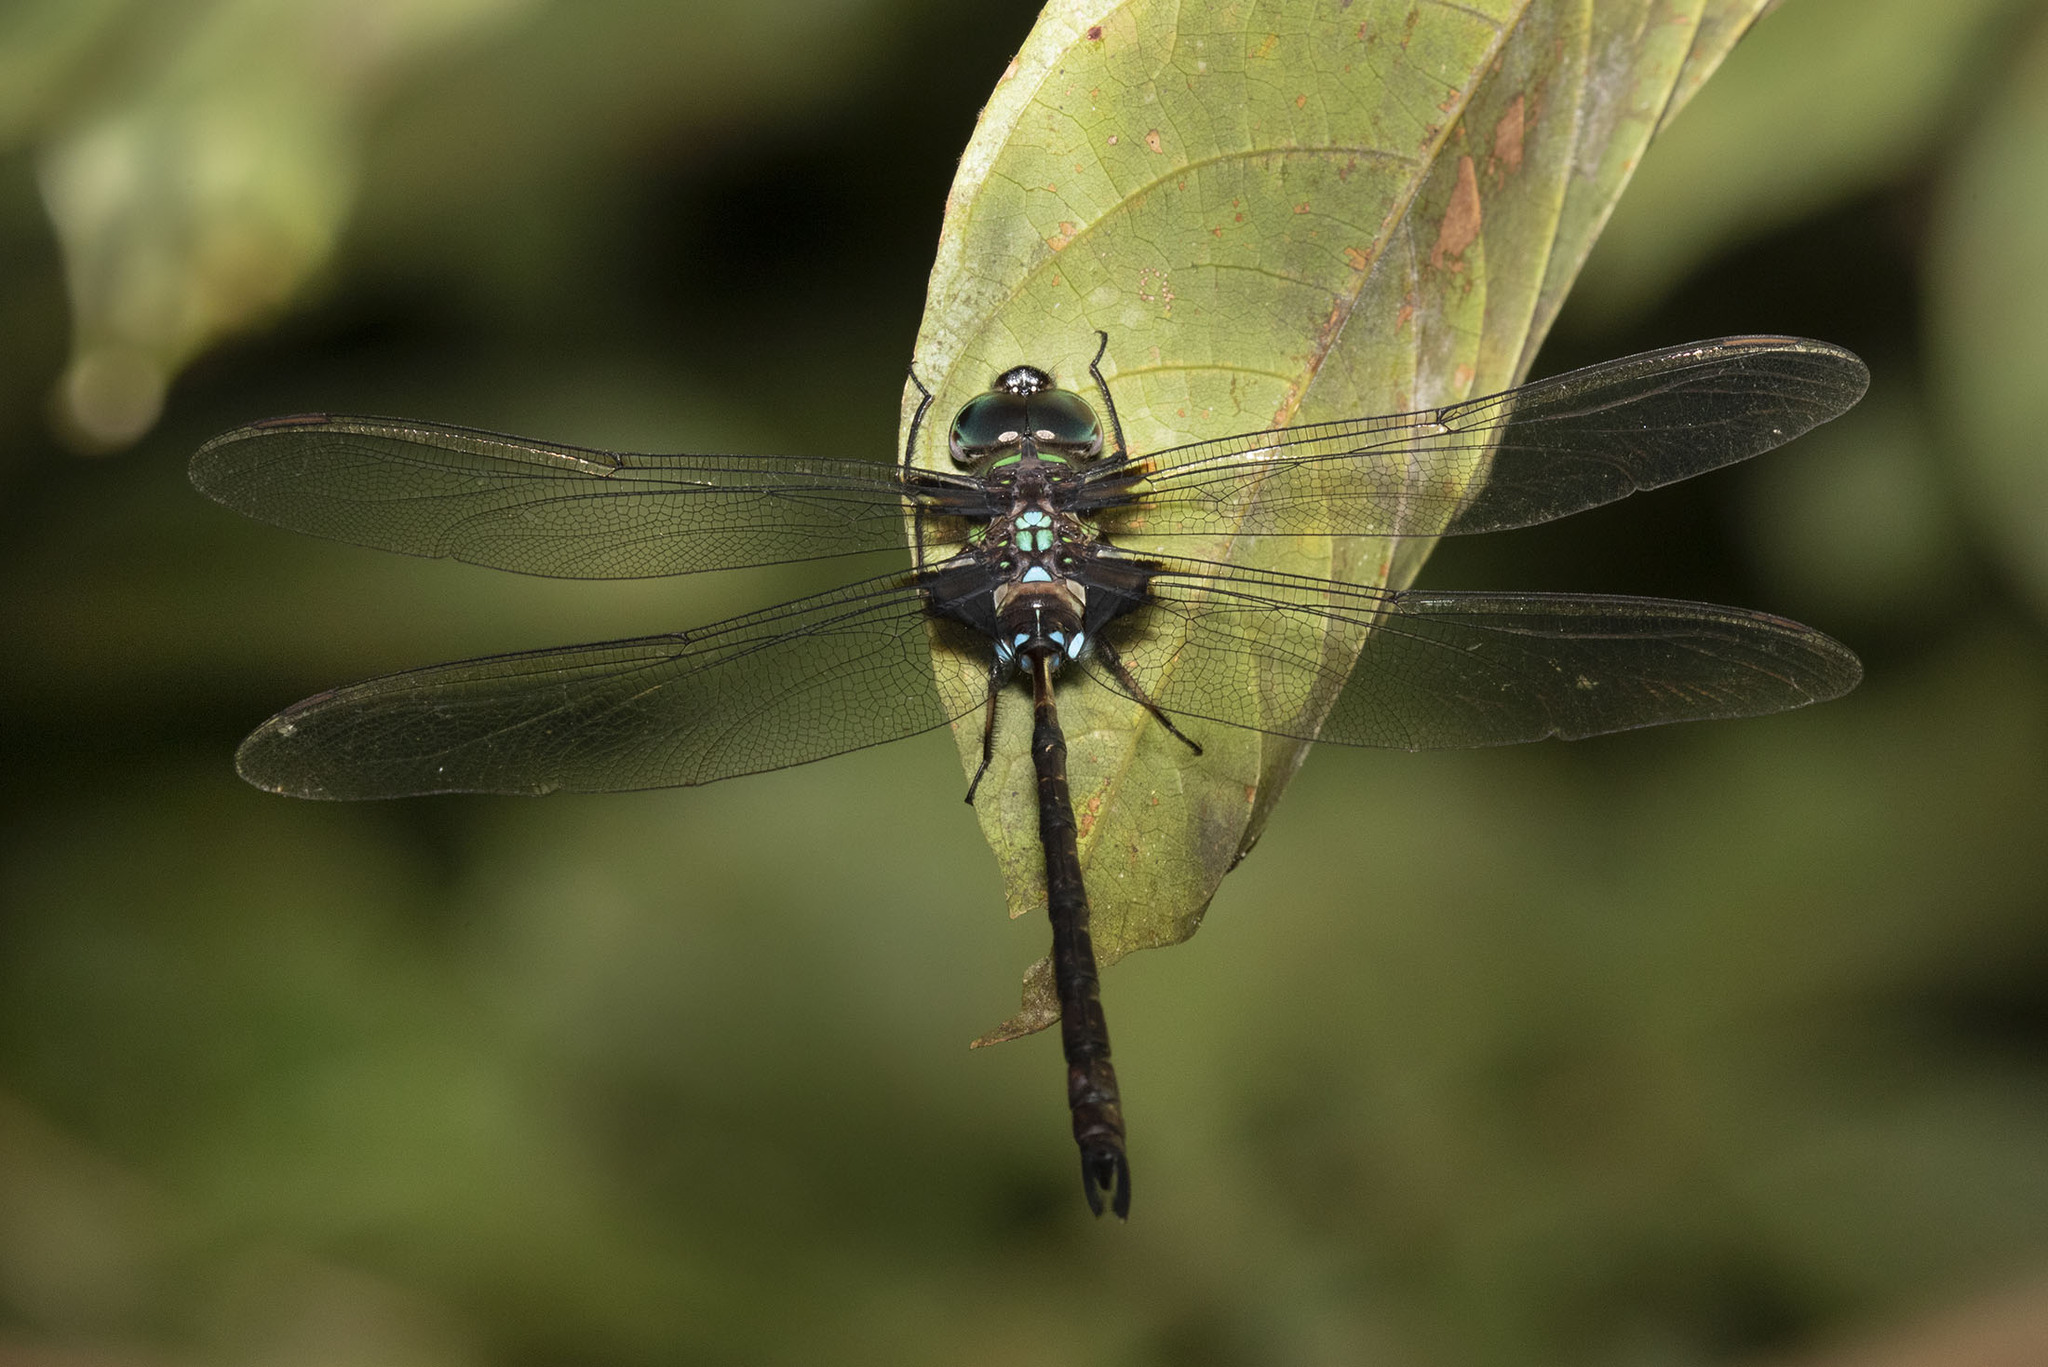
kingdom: Animalia
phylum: Arthropoda
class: Insecta
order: Odonata
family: Aeshnidae
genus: Gynacantha
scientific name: Gynacantha membranalis
